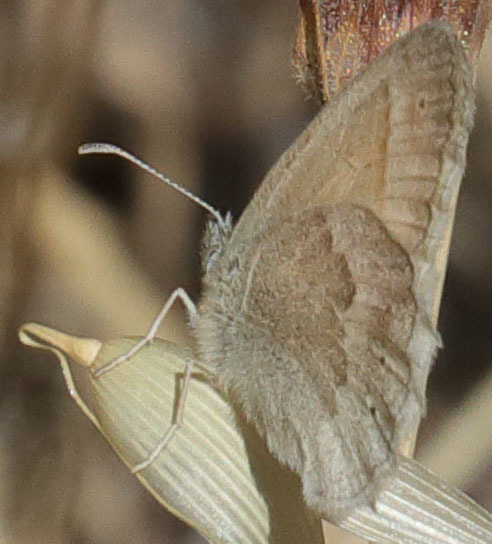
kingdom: Animalia
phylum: Arthropoda
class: Insecta
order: Lepidoptera
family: Nymphalidae
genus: Coenonympha
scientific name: Coenonympha california
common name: Common ringlet
